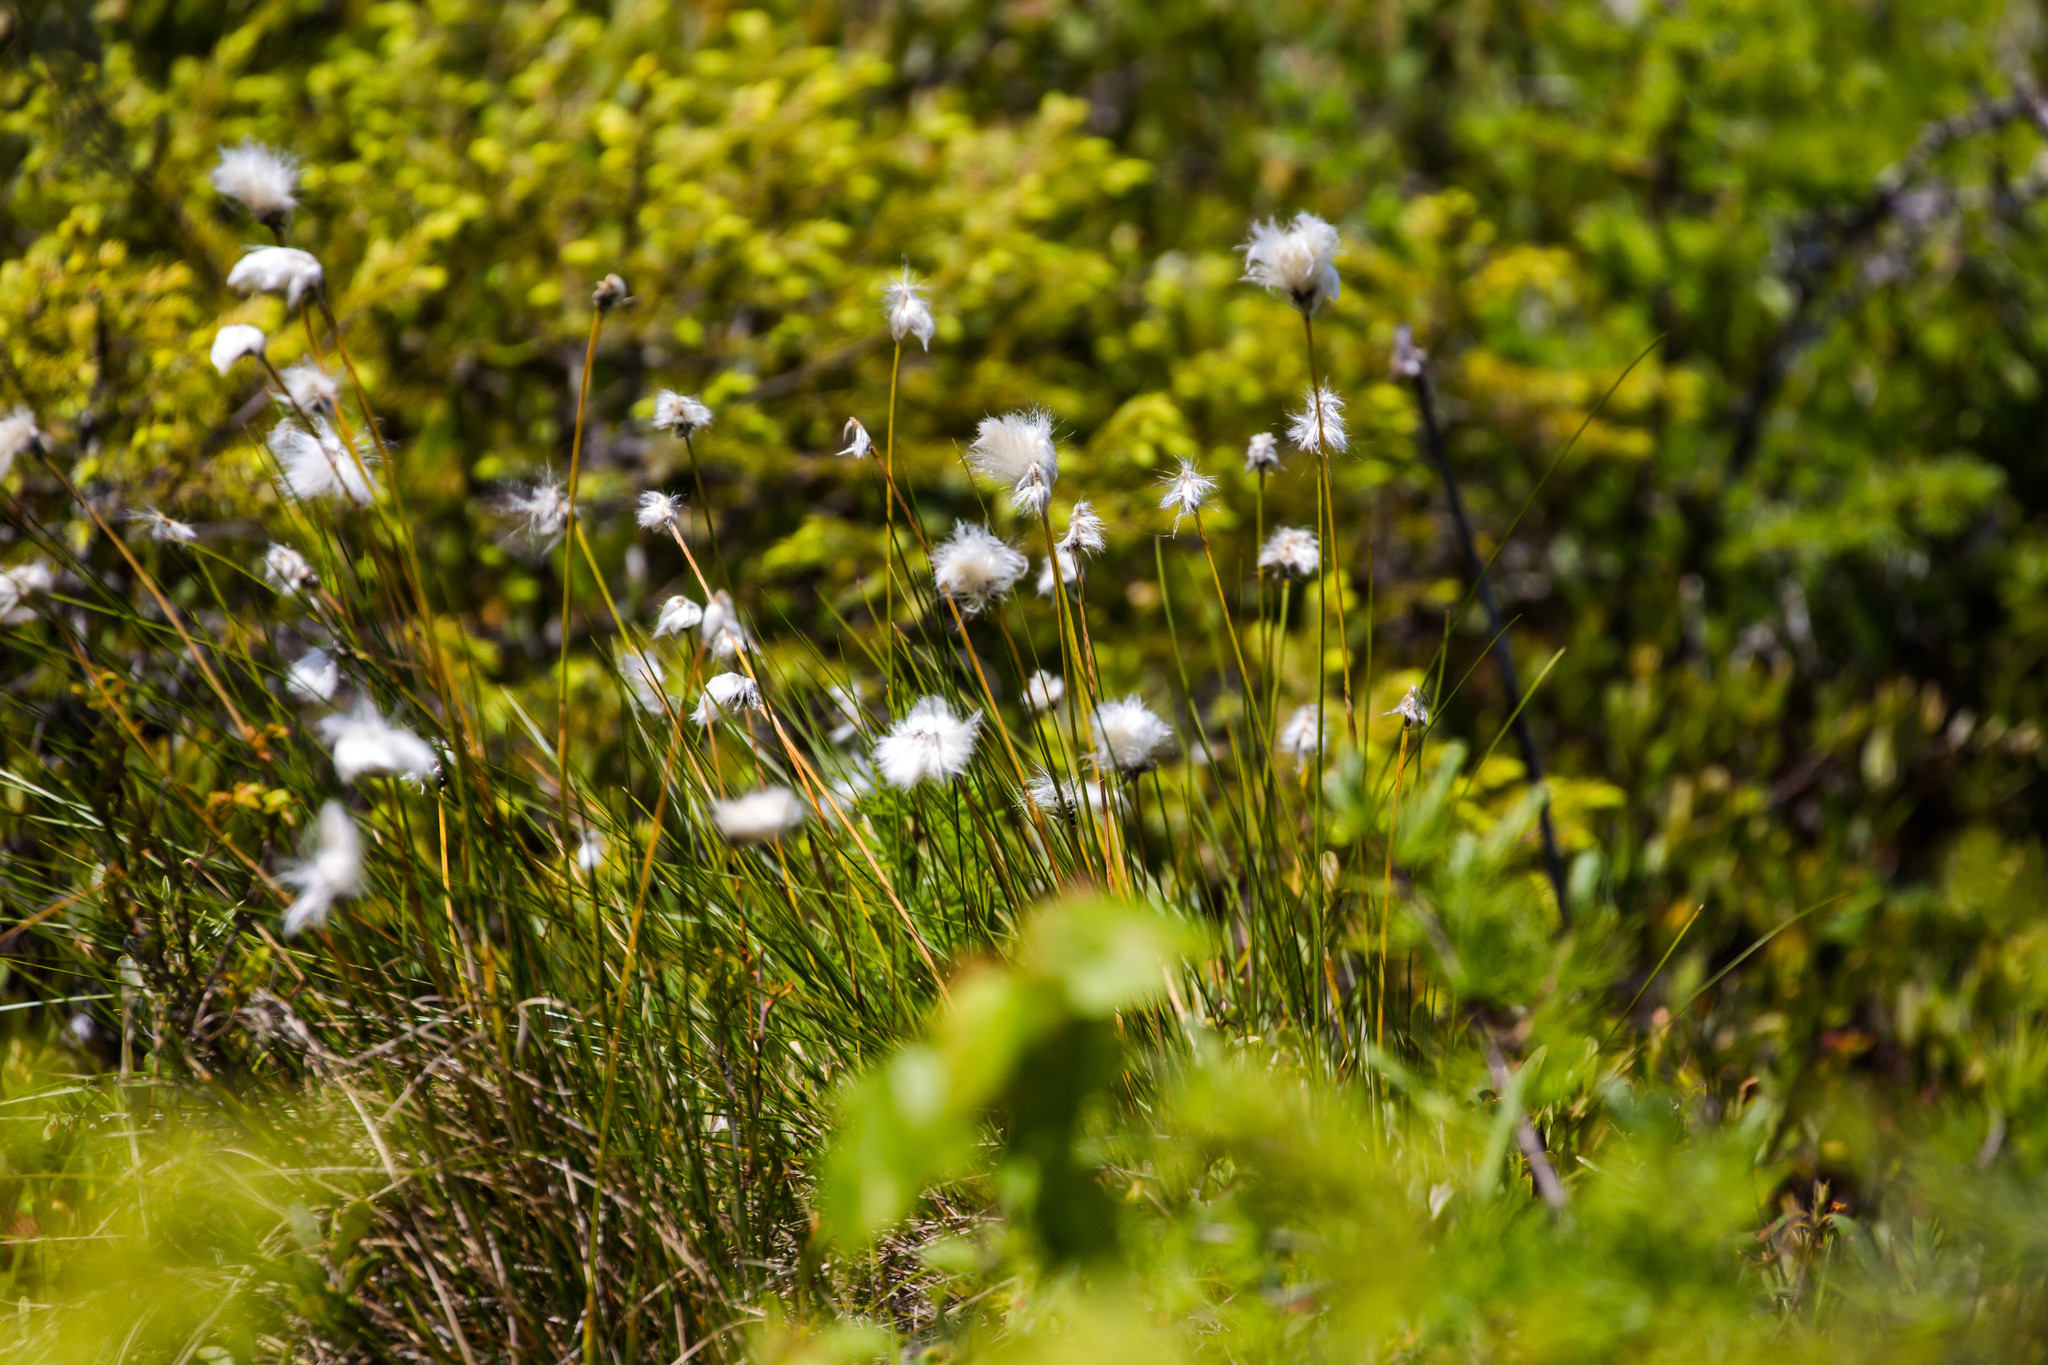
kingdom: Plantae
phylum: Tracheophyta
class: Liliopsida
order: Poales
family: Cyperaceae
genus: Eriophorum
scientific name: Eriophorum vaginatum
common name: Hare's-tail cottongrass
